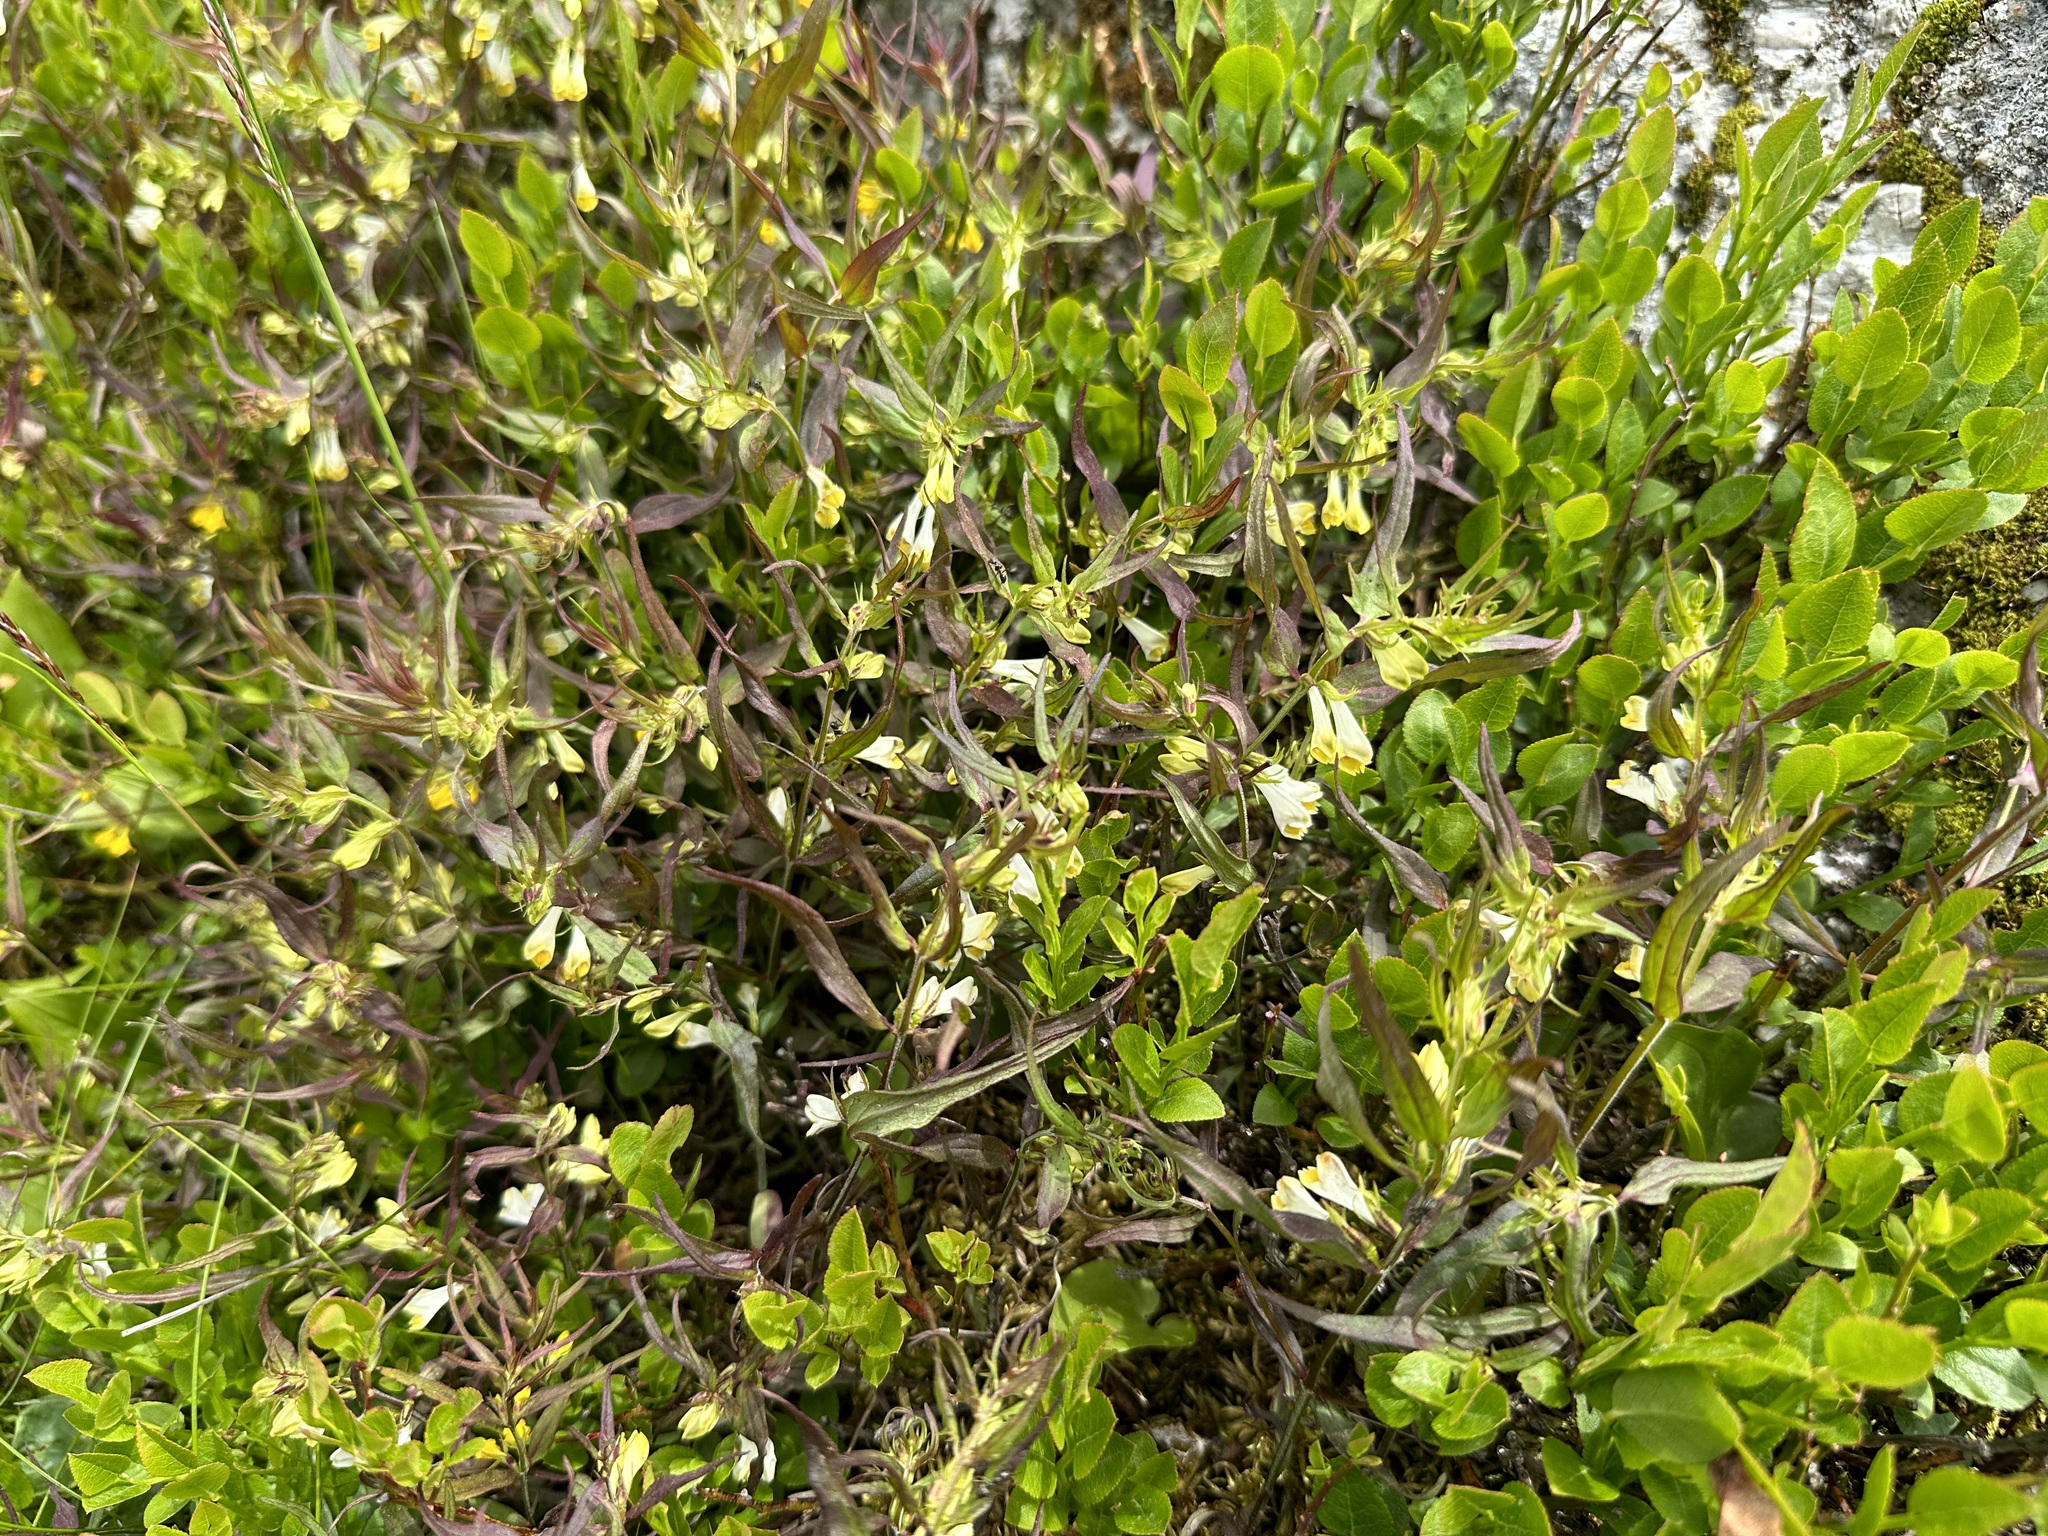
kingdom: Plantae
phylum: Tracheophyta
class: Magnoliopsida
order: Lamiales
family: Orobanchaceae
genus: Melampyrum
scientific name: Melampyrum pratense
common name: Common cow-wheat
